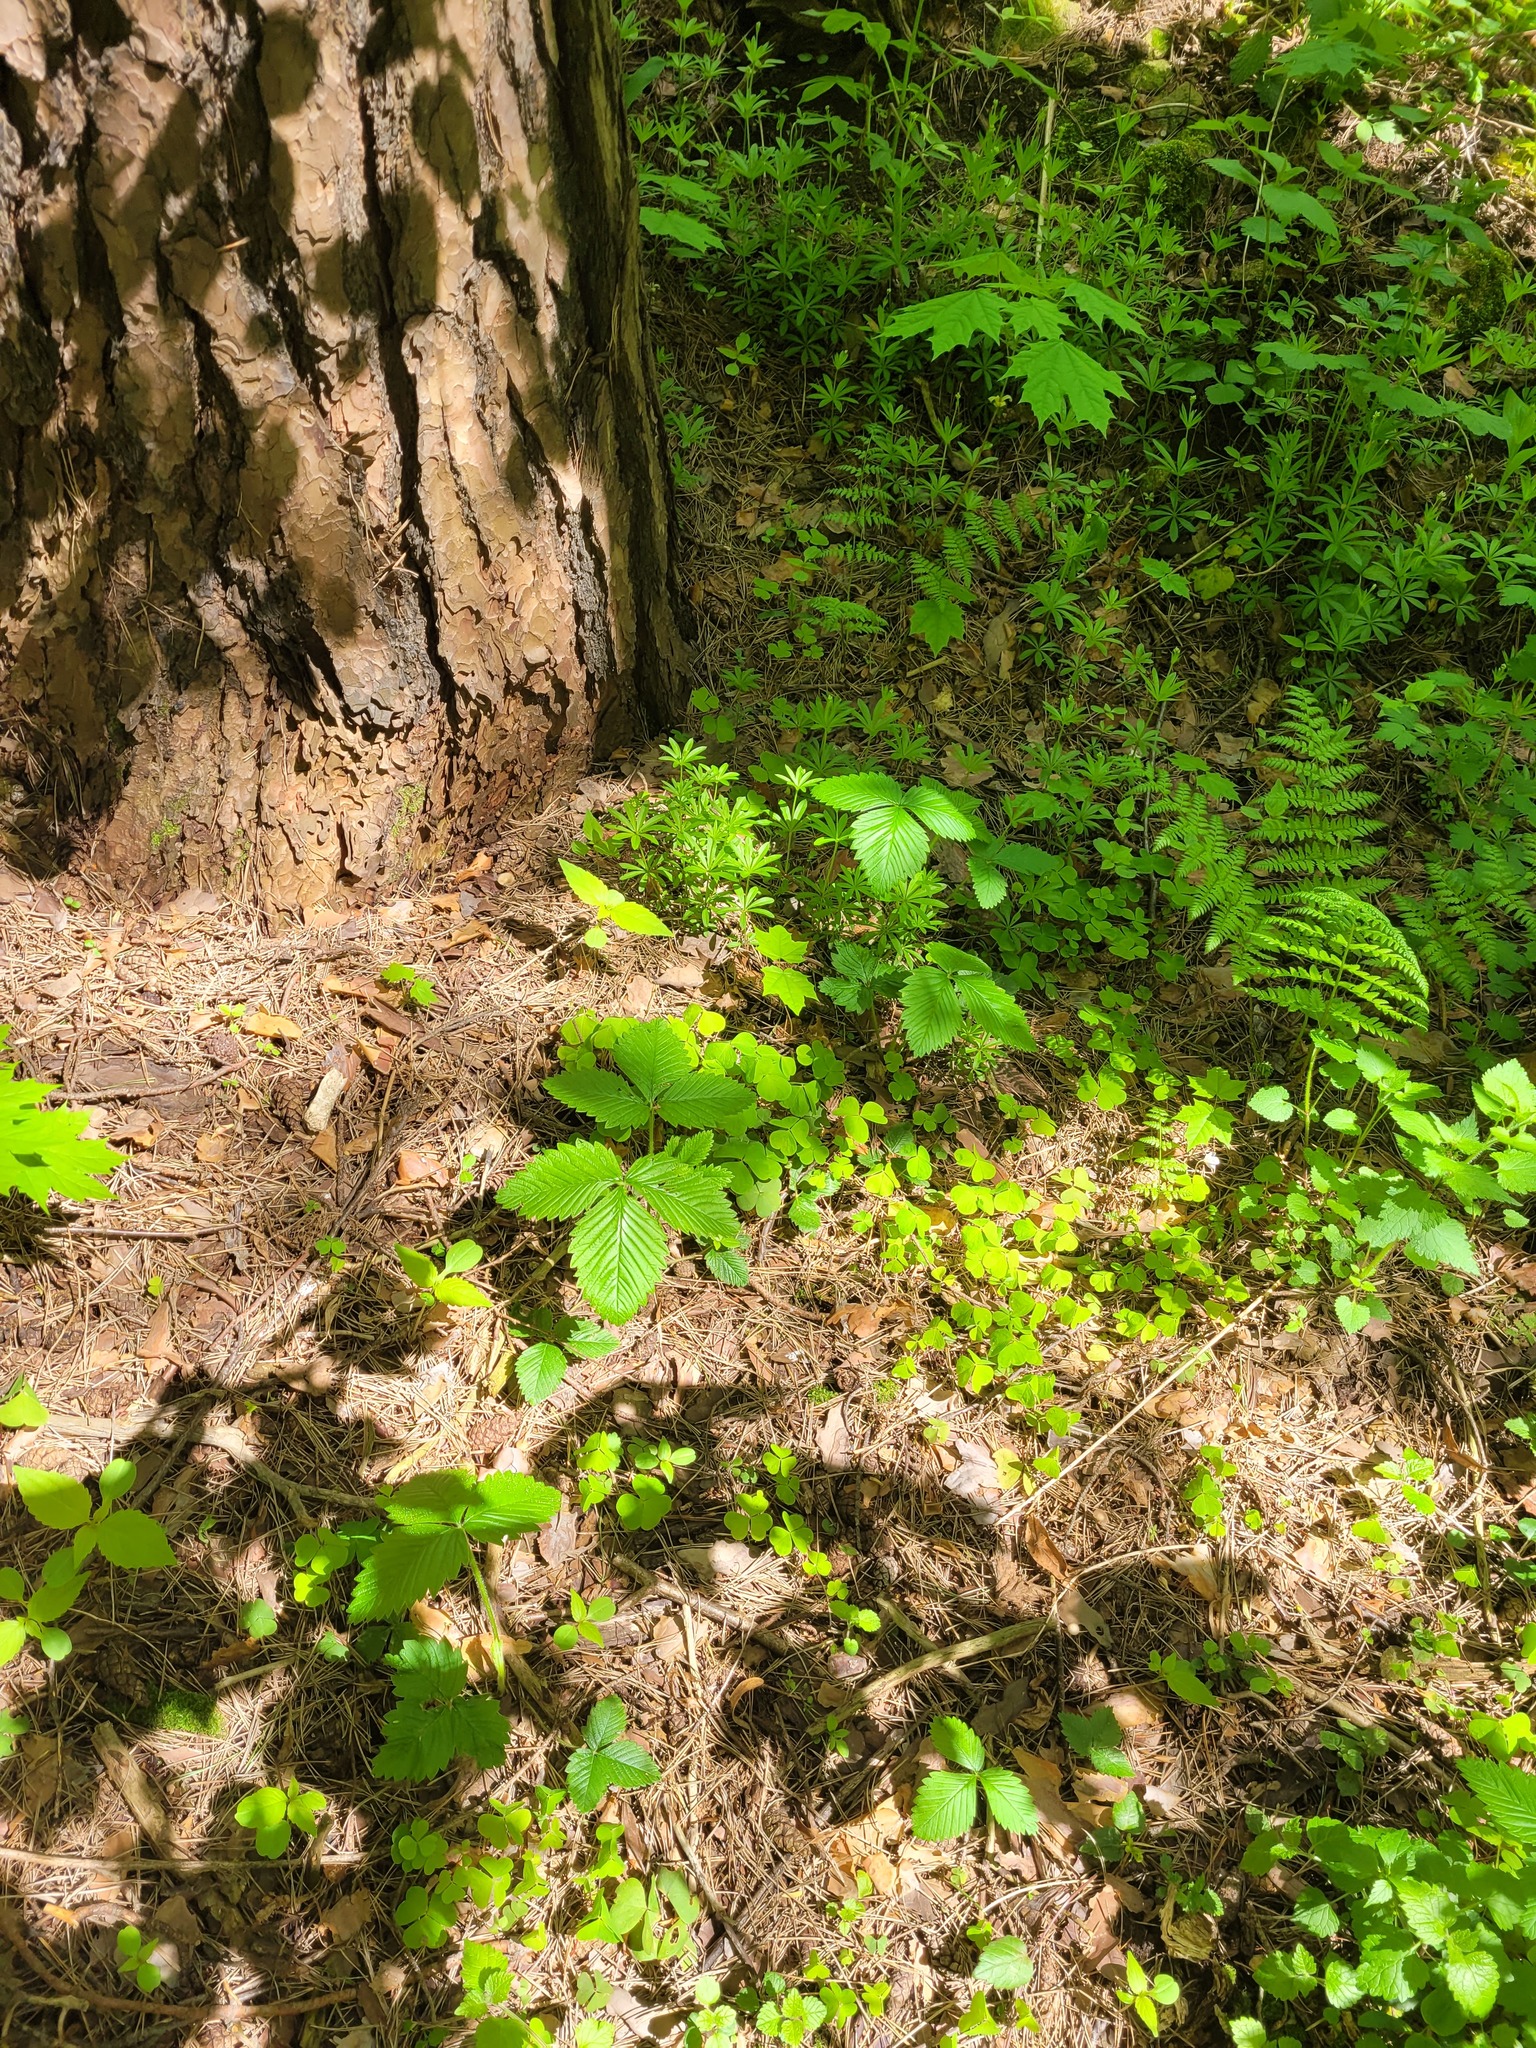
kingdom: Plantae
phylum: Tracheophyta
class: Magnoliopsida
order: Rosales
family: Rosaceae
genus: Fragaria
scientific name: Fragaria moschata
